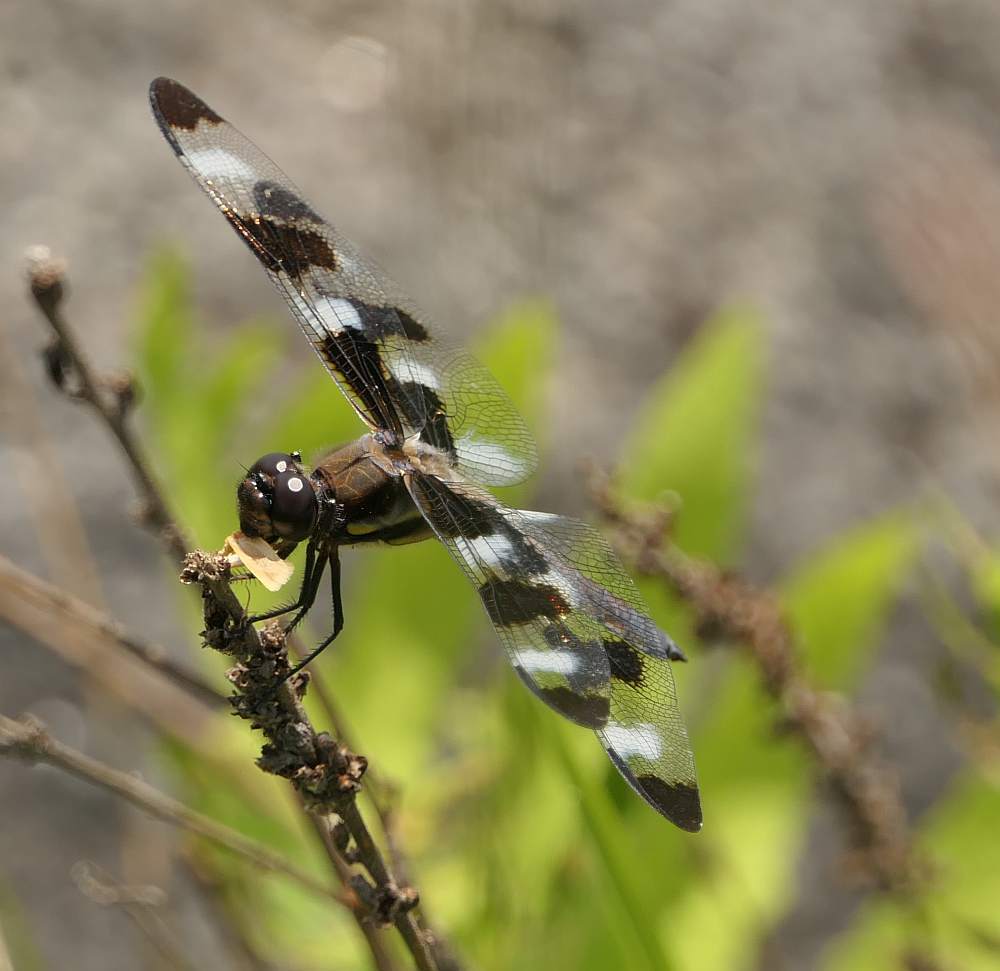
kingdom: Animalia
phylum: Arthropoda
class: Insecta
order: Odonata
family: Libellulidae
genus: Libellula
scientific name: Libellula pulchella
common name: Twelve-spotted skimmer
